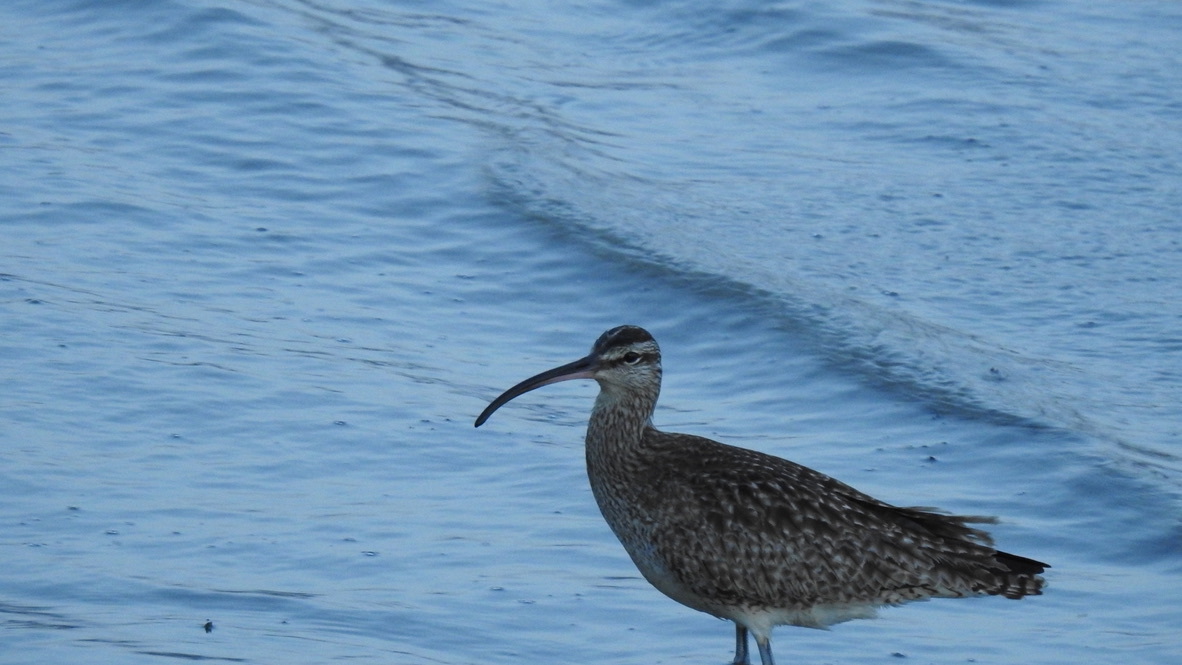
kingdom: Animalia
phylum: Chordata
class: Aves
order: Charadriiformes
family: Scolopacidae
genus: Numenius
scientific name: Numenius phaeopus
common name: Whimbrel
